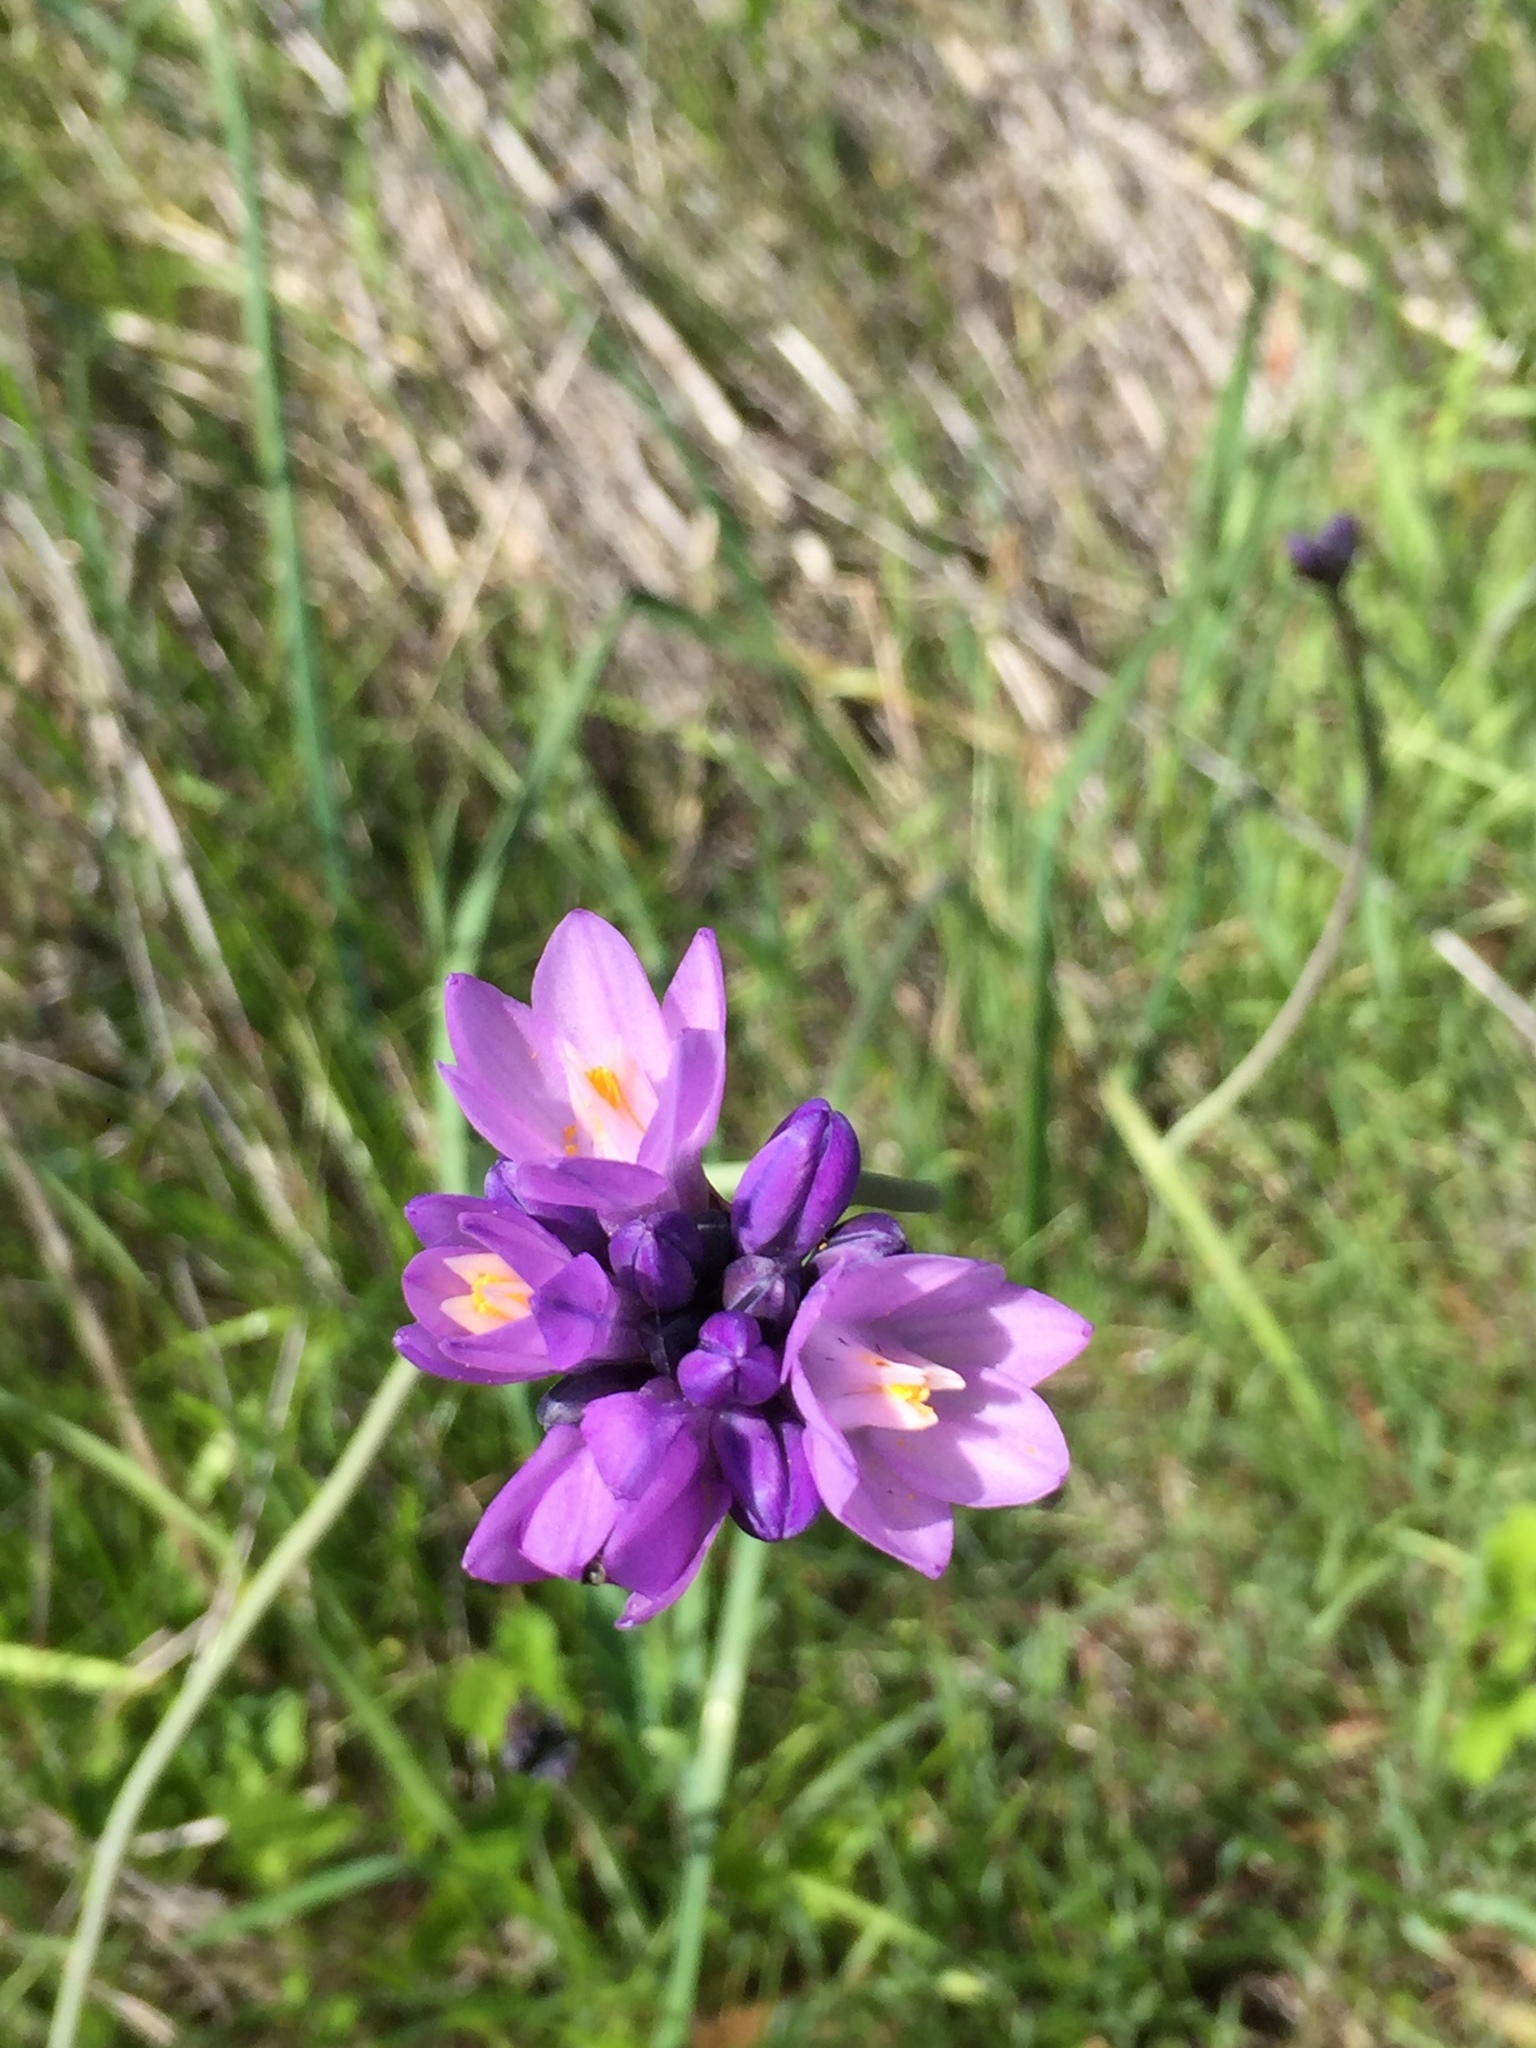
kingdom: Plantae
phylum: Tracheophyta
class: Liliopsida
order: Asparagales
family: Asparagaceae
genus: Dipterostemon
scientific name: Dipterostemon capitatus
